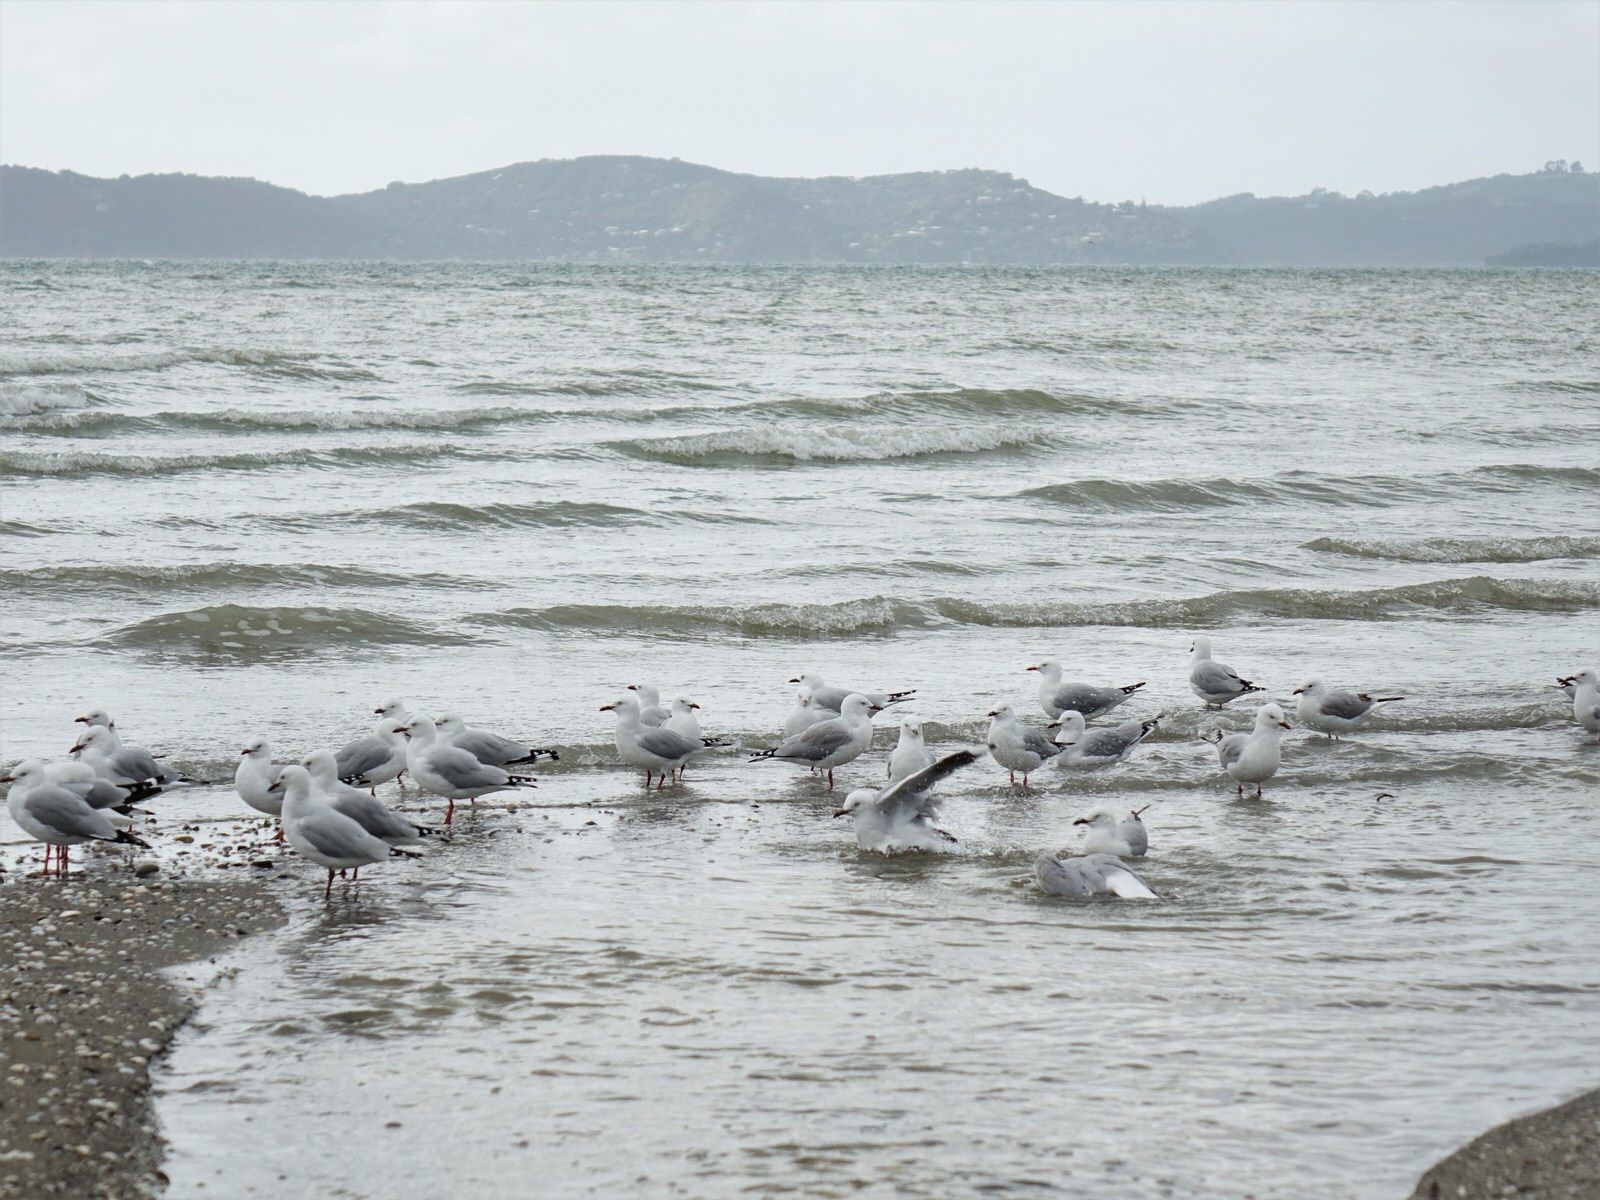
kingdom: Animalia
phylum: Chordata
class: Aves
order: Charadriiformes
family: Laridae
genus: Chroicocephalus
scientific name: Chroicocephalus novaehollandiae
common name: Silver gull
